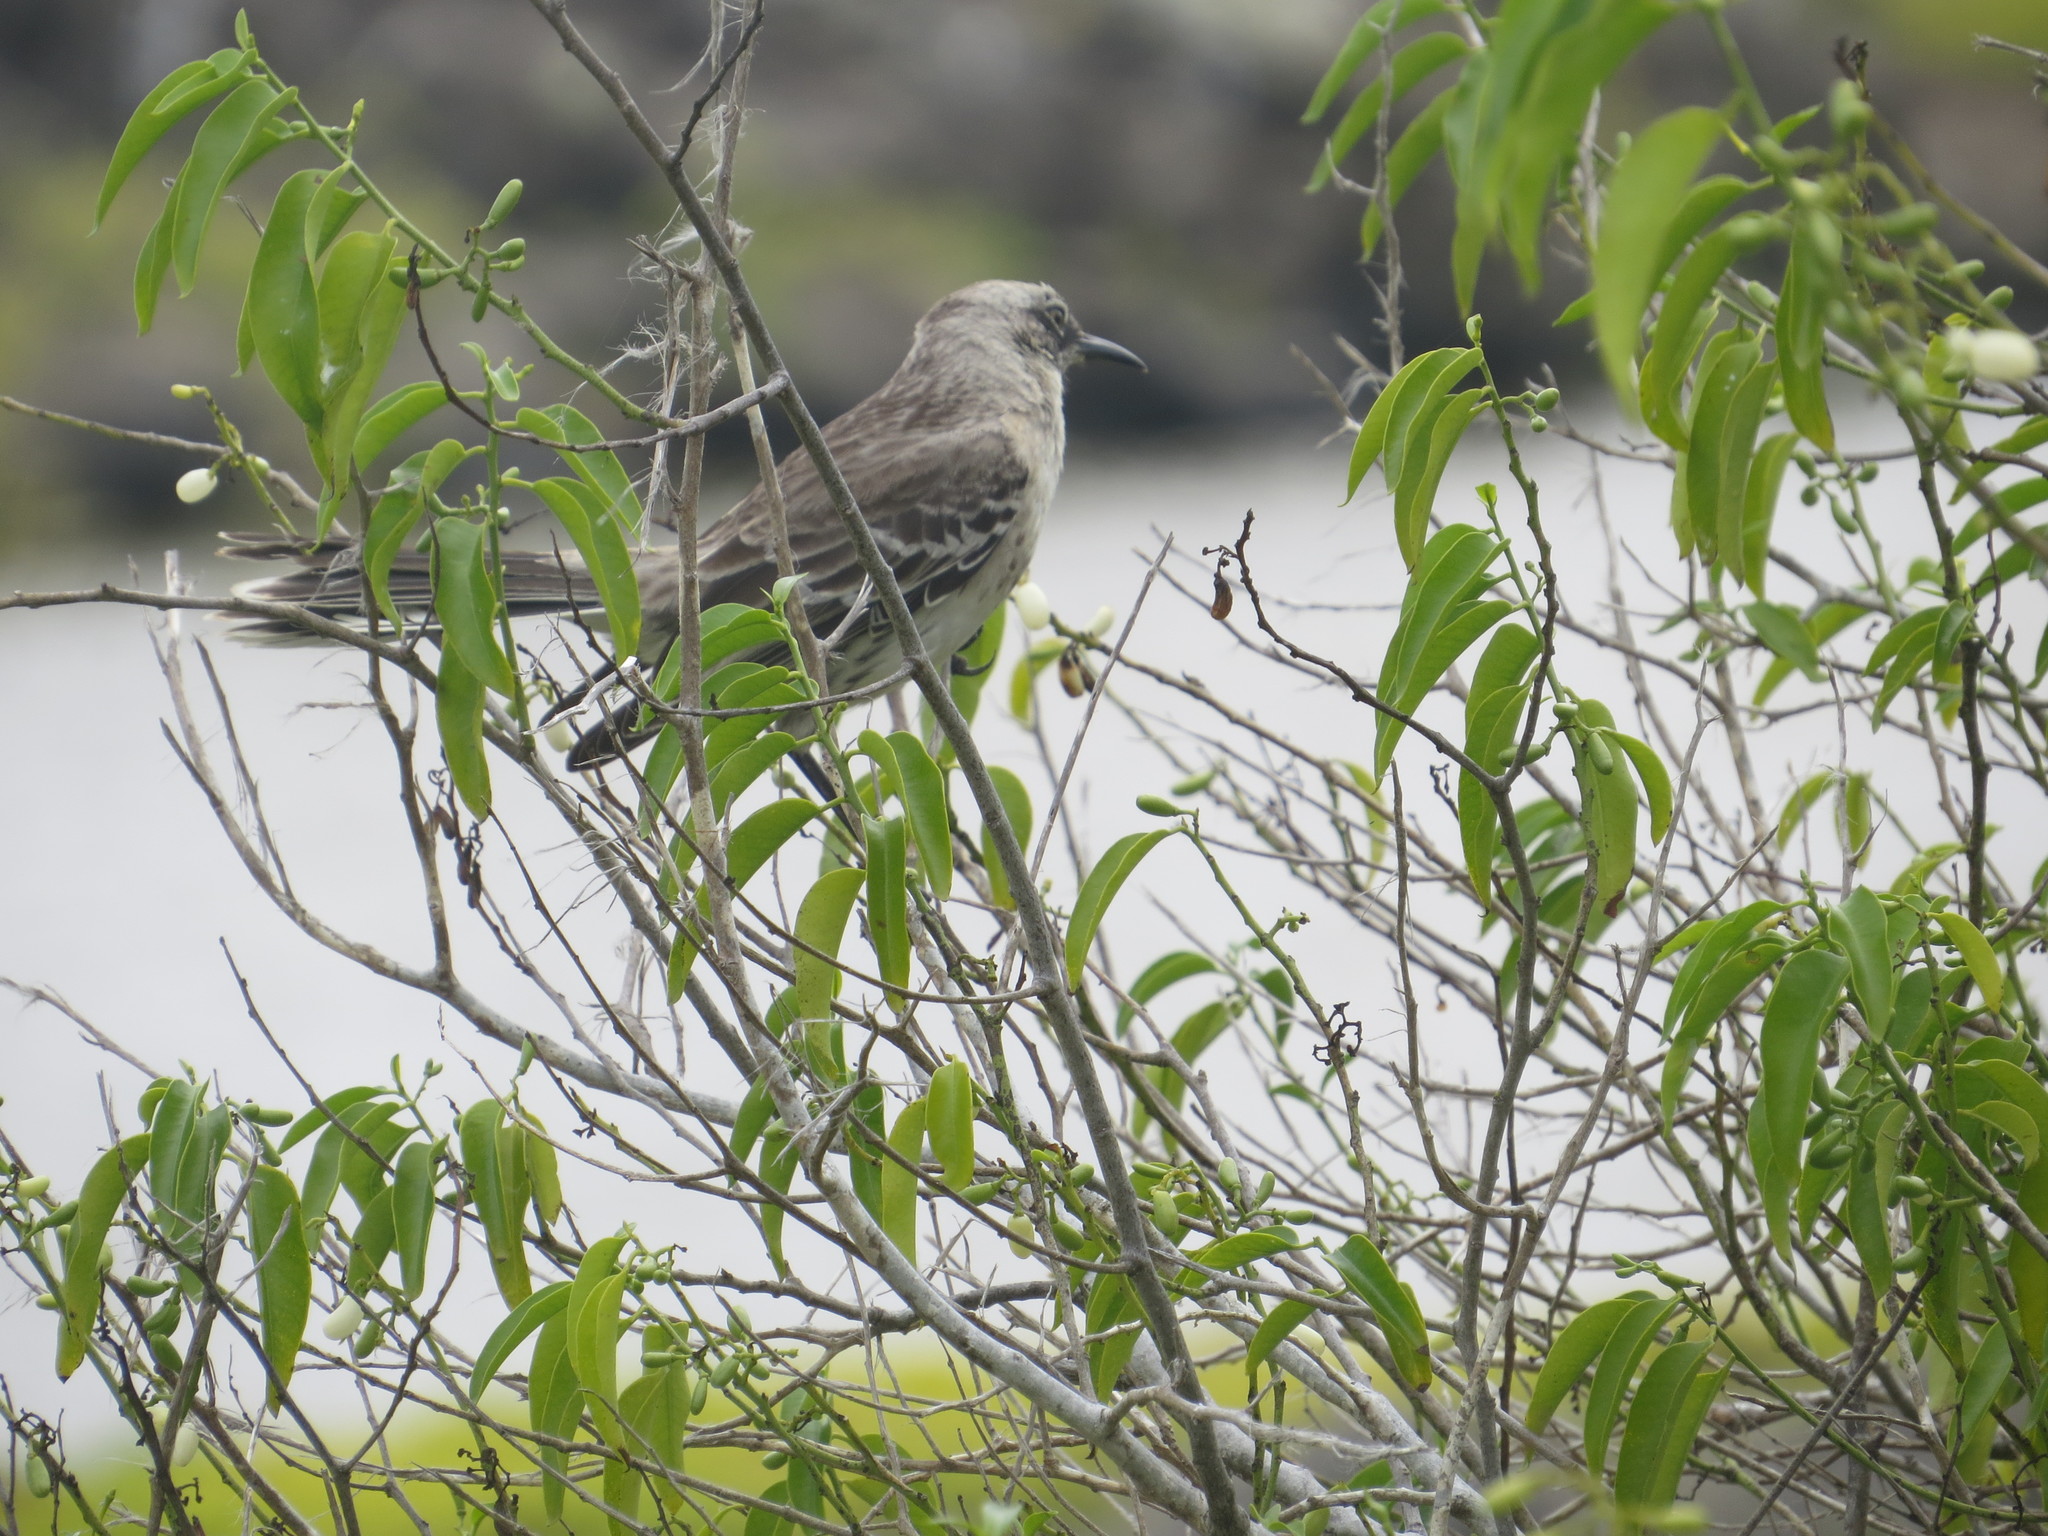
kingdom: Animalia
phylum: Chordata
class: Aves
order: Passeriformes
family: Mimidae
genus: Mimus
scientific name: Mimus melanotis
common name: San cristobal mockingbird
